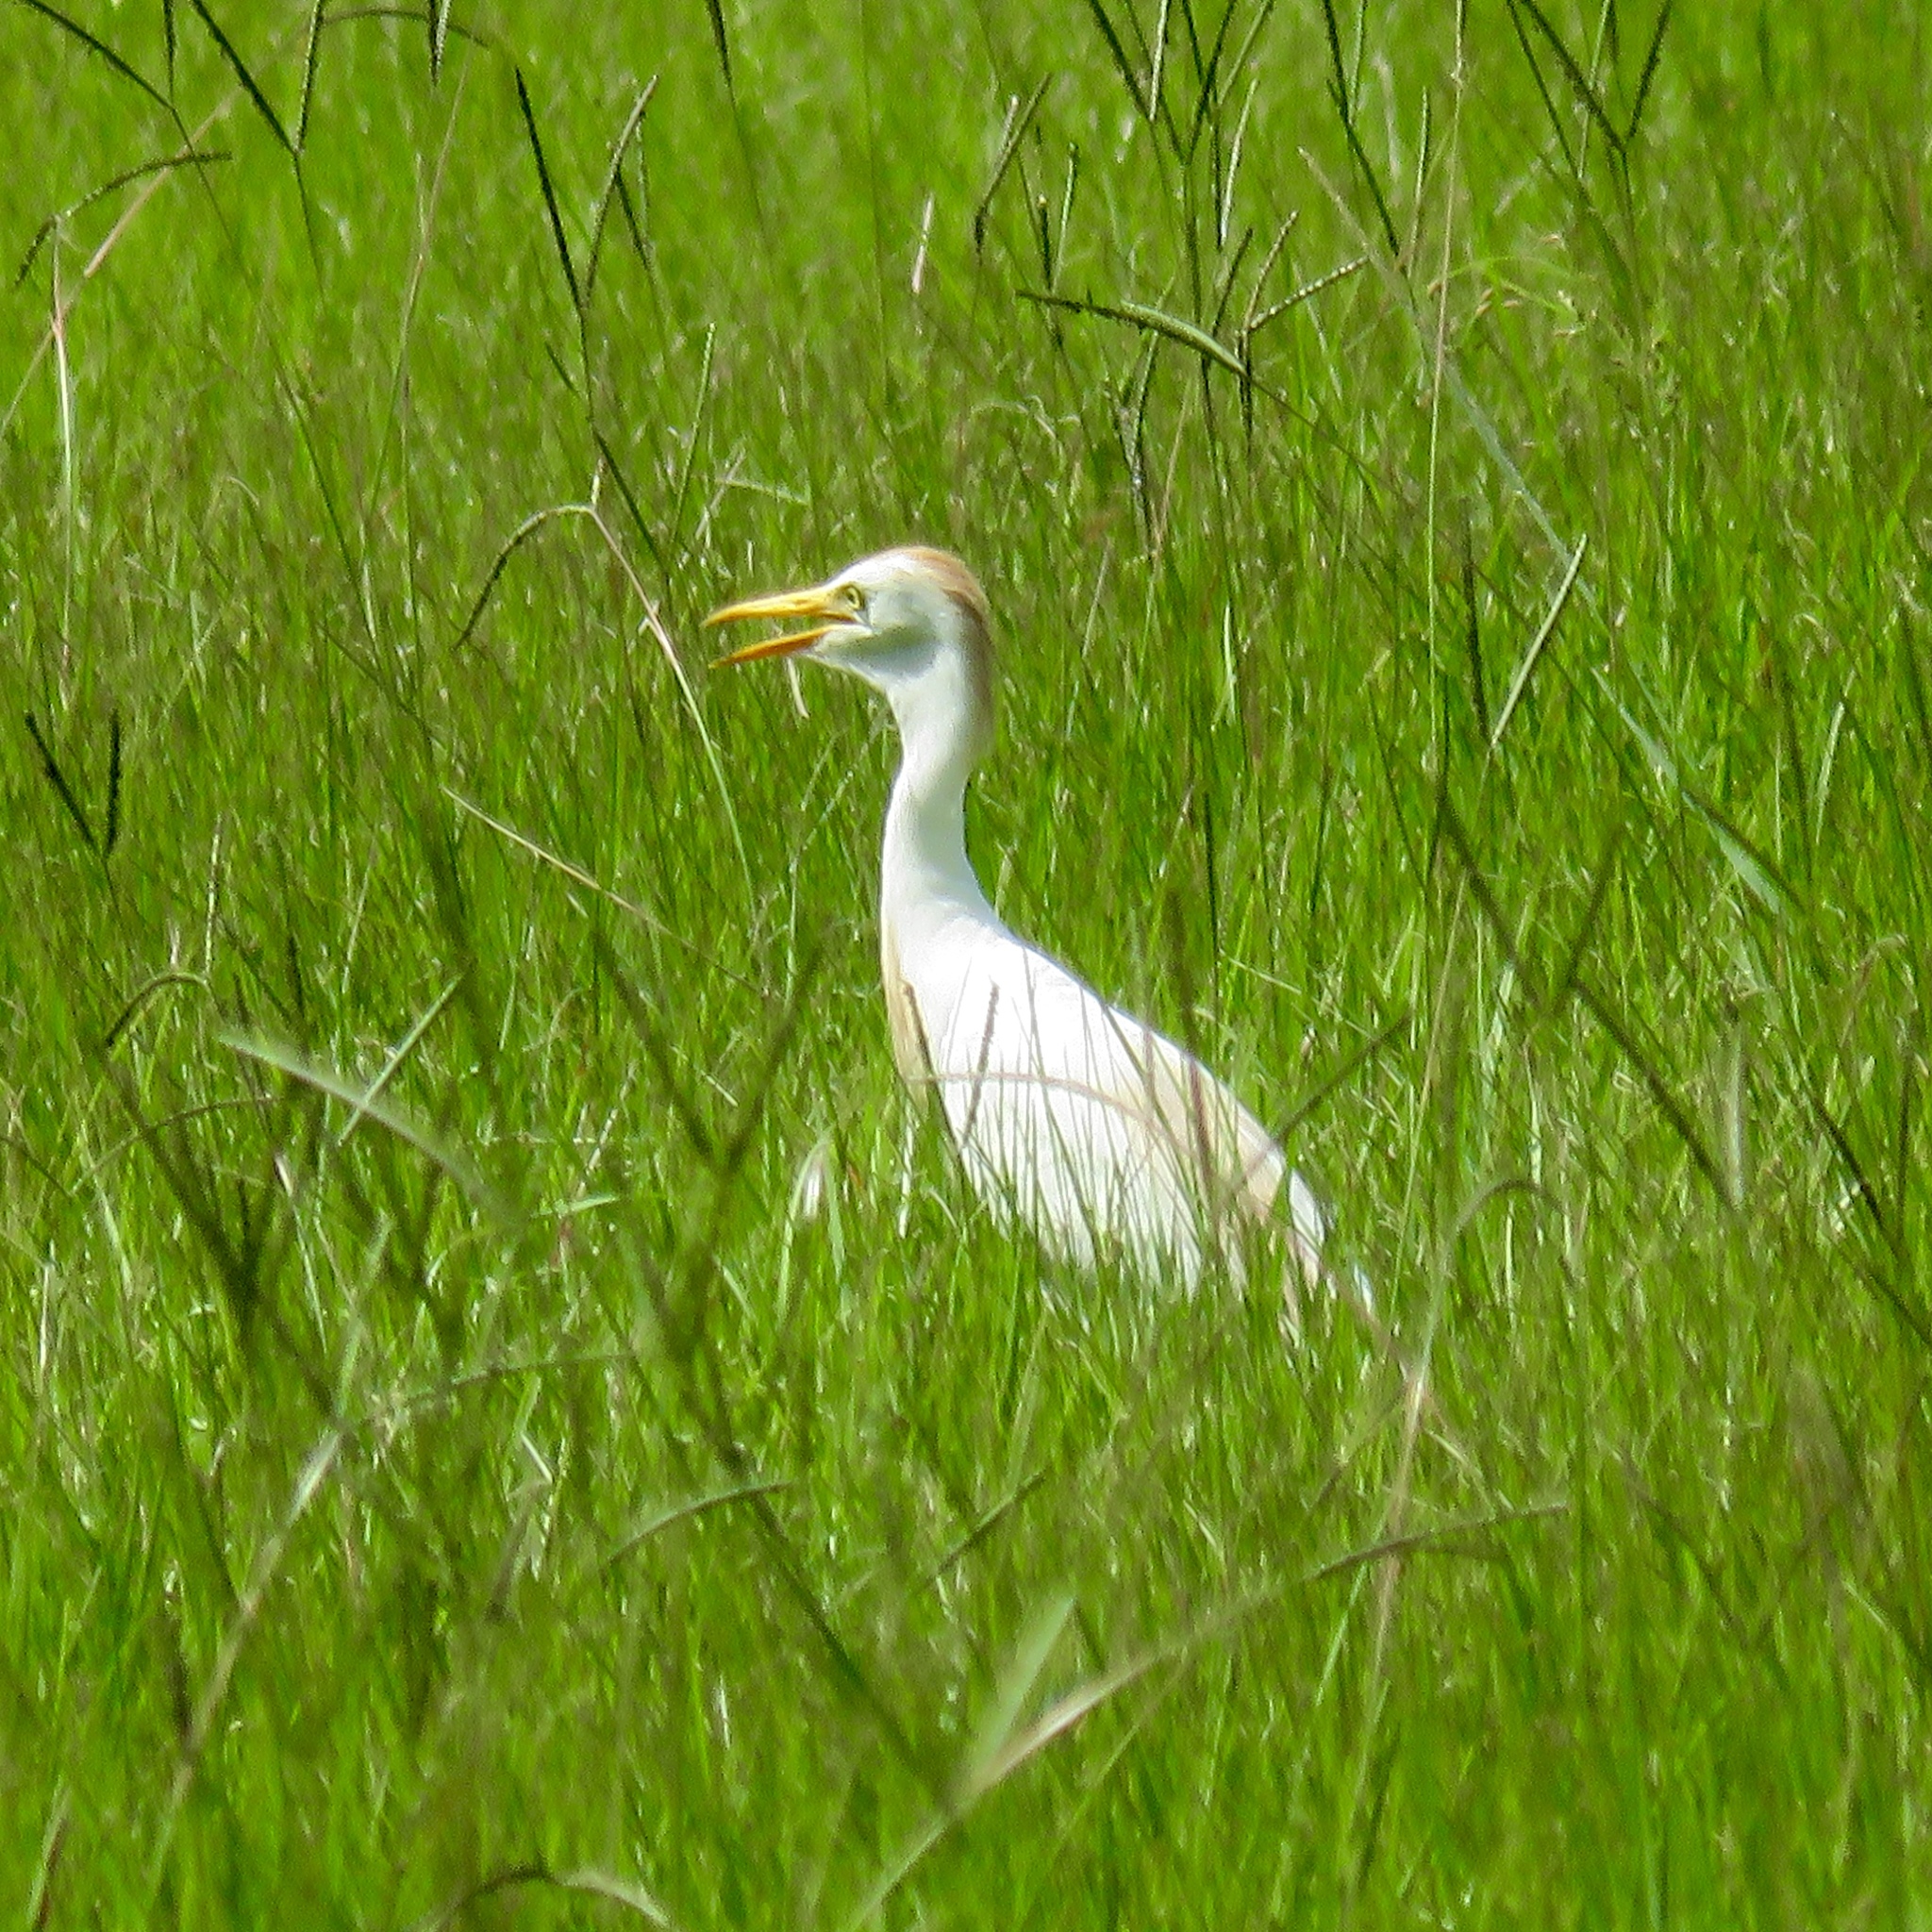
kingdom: Animalia
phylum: Chordata
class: Aves
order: Pelecaniformes
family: Ardeidae
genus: Bubulcus
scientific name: Bubulcus ibis
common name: Cattle egret
